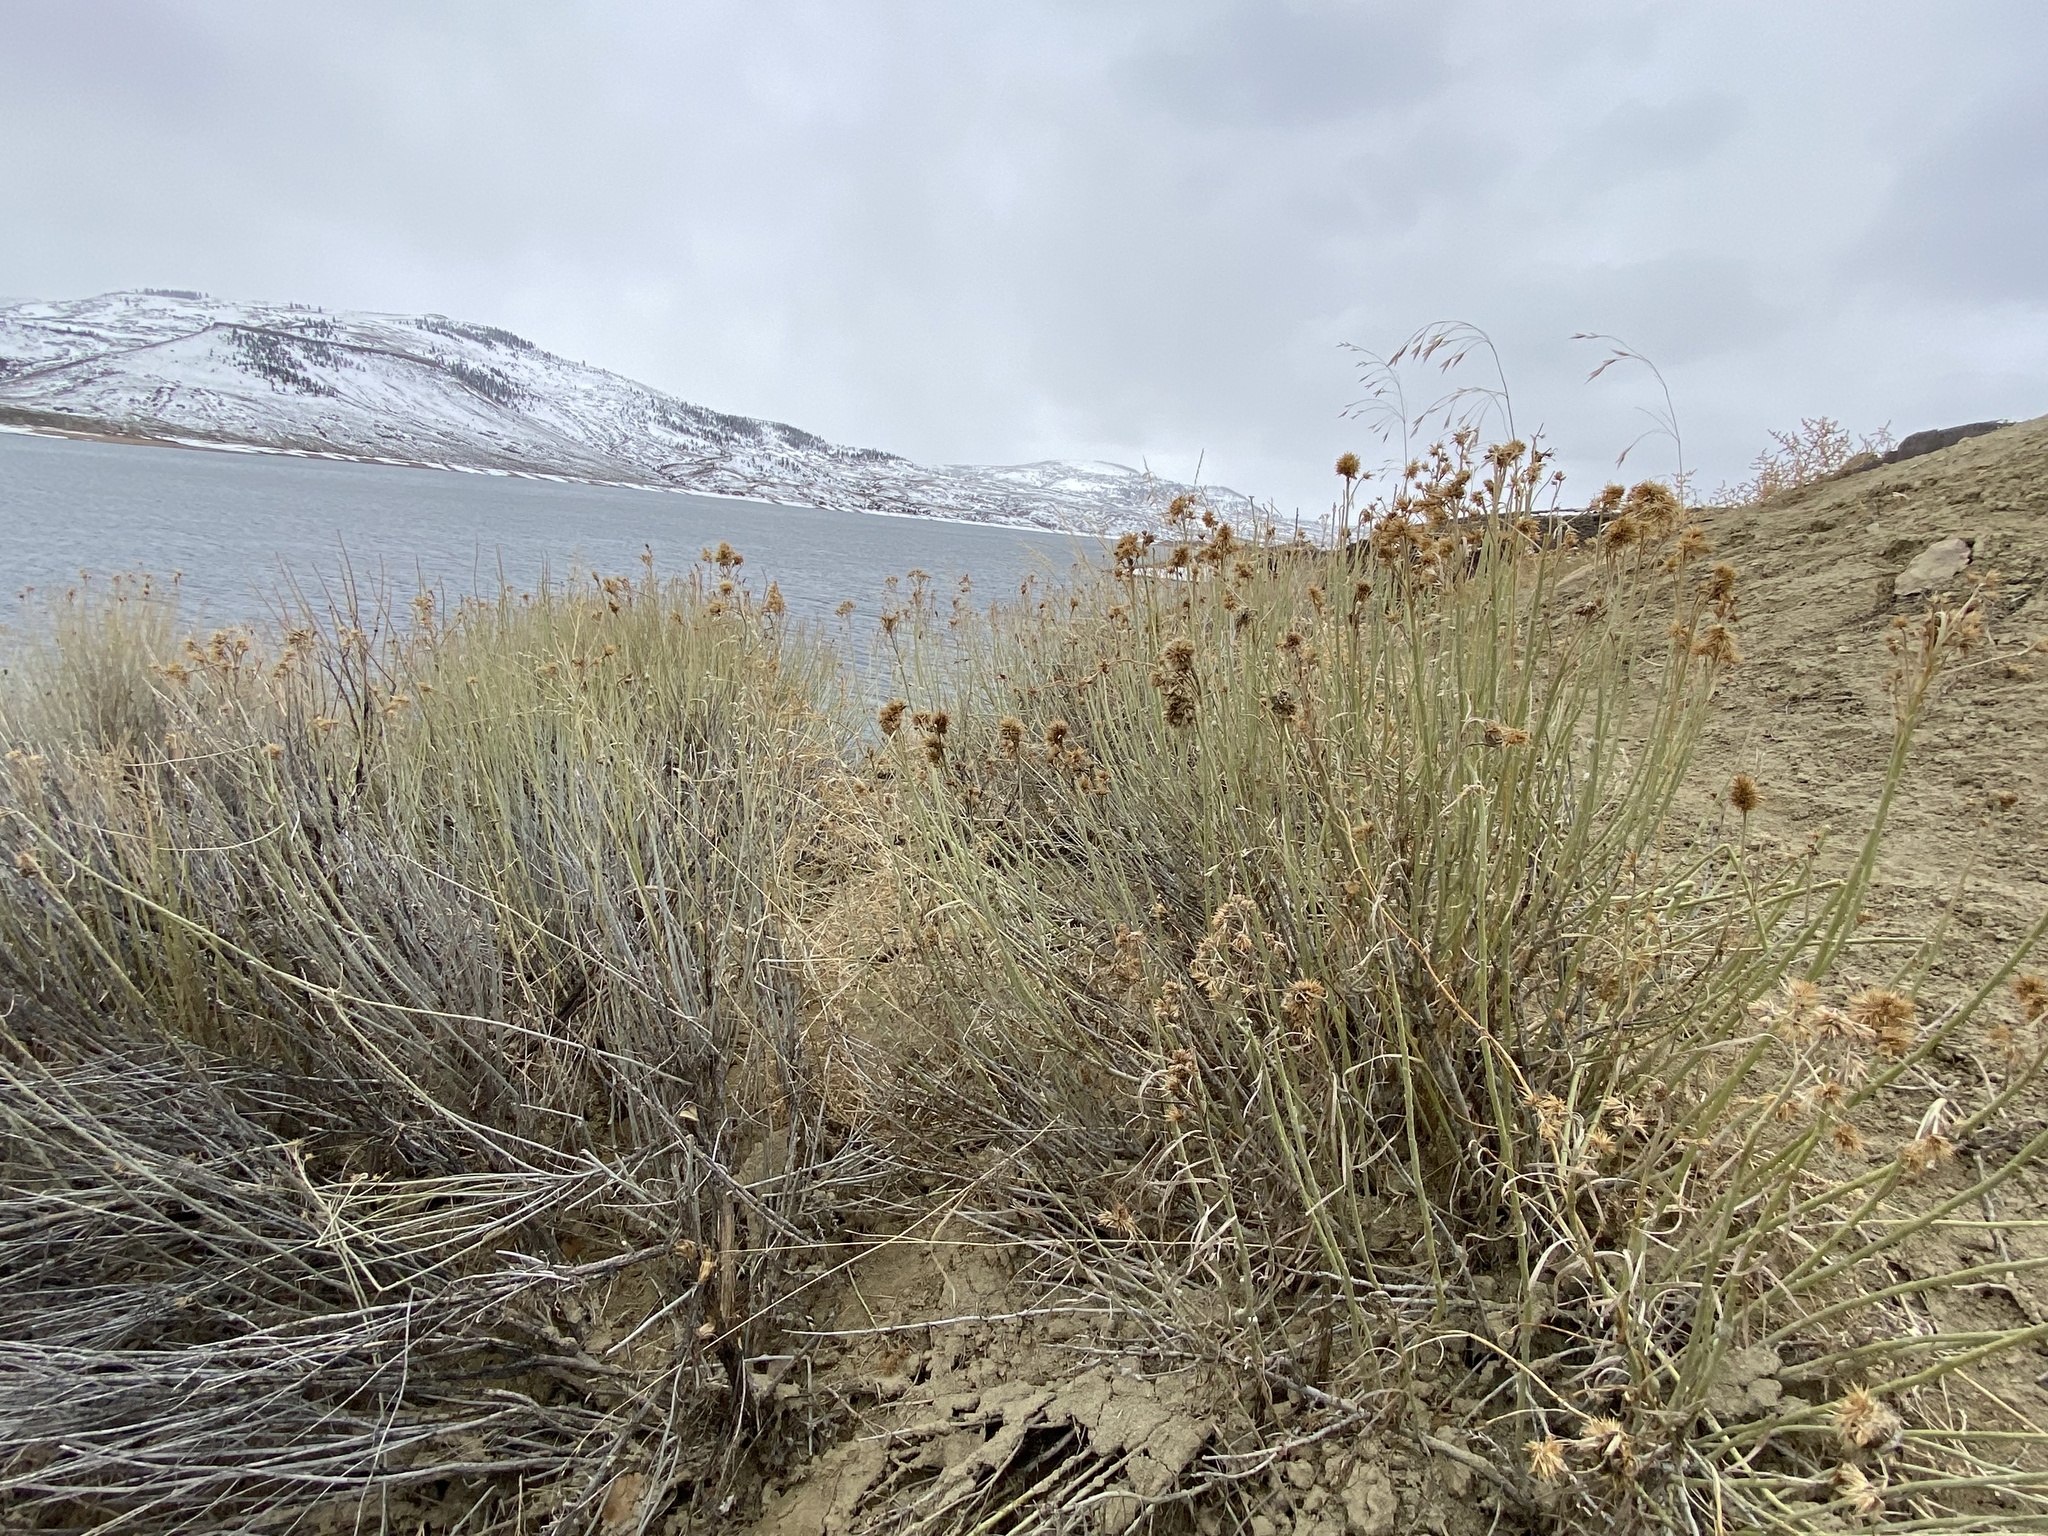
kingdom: Plantae
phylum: Tracheophyta
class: Magnoliopsida
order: Asterales
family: Asteraceae
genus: Ericameria
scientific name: Ericameria nauseosa
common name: Rubber rabbitbrush
